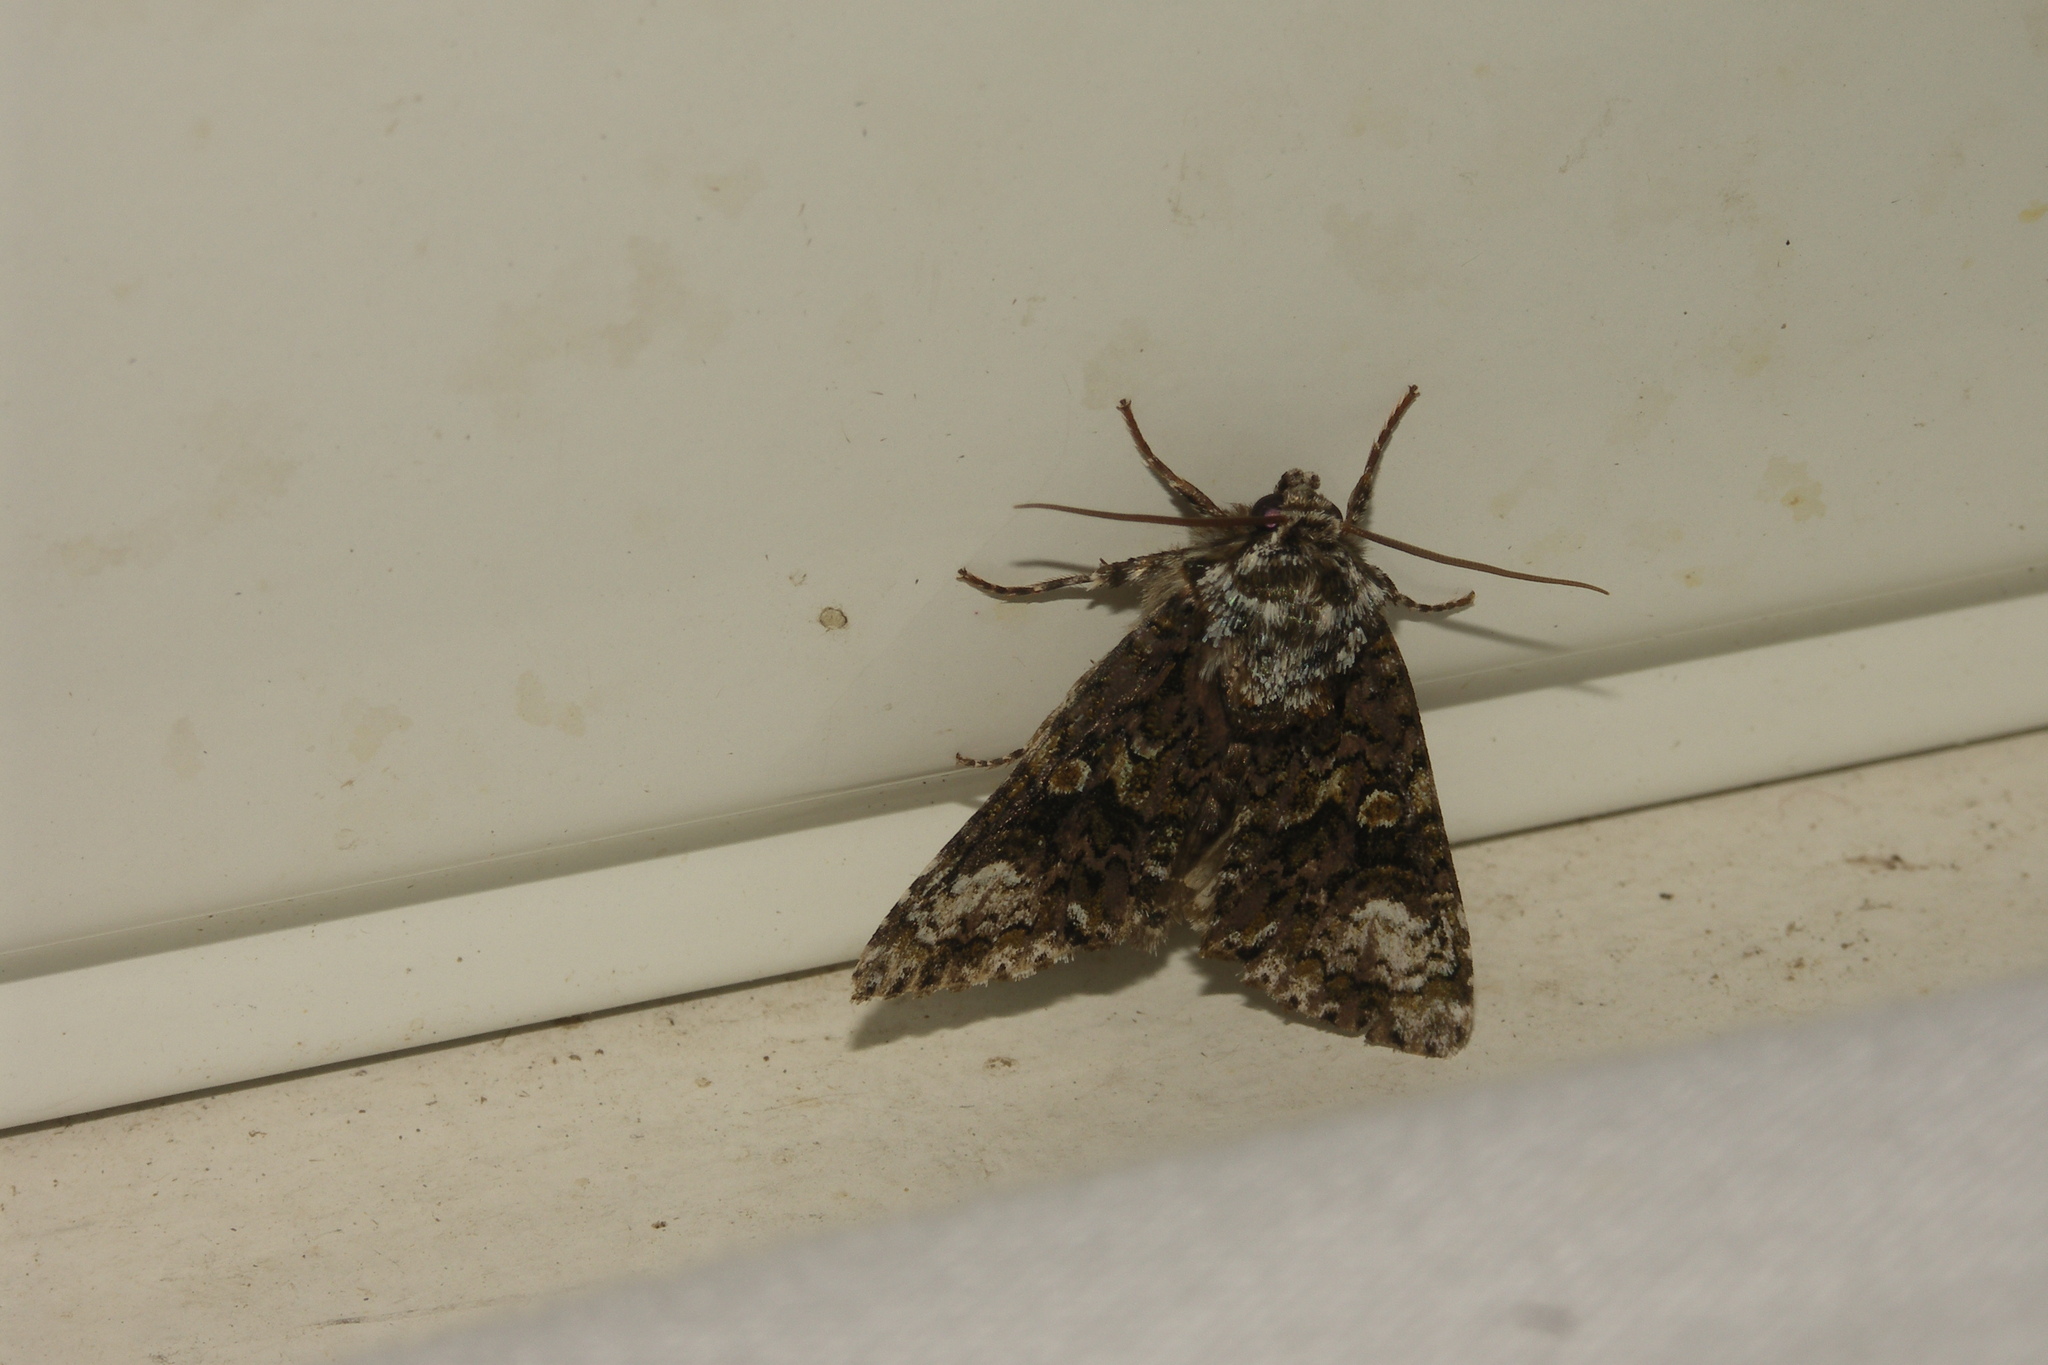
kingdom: Animalia
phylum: Arthropoda
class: Insecta
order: Lepidoptera
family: Noctuidae
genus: Craniophora
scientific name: Craniophora ligustri
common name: Coronet
